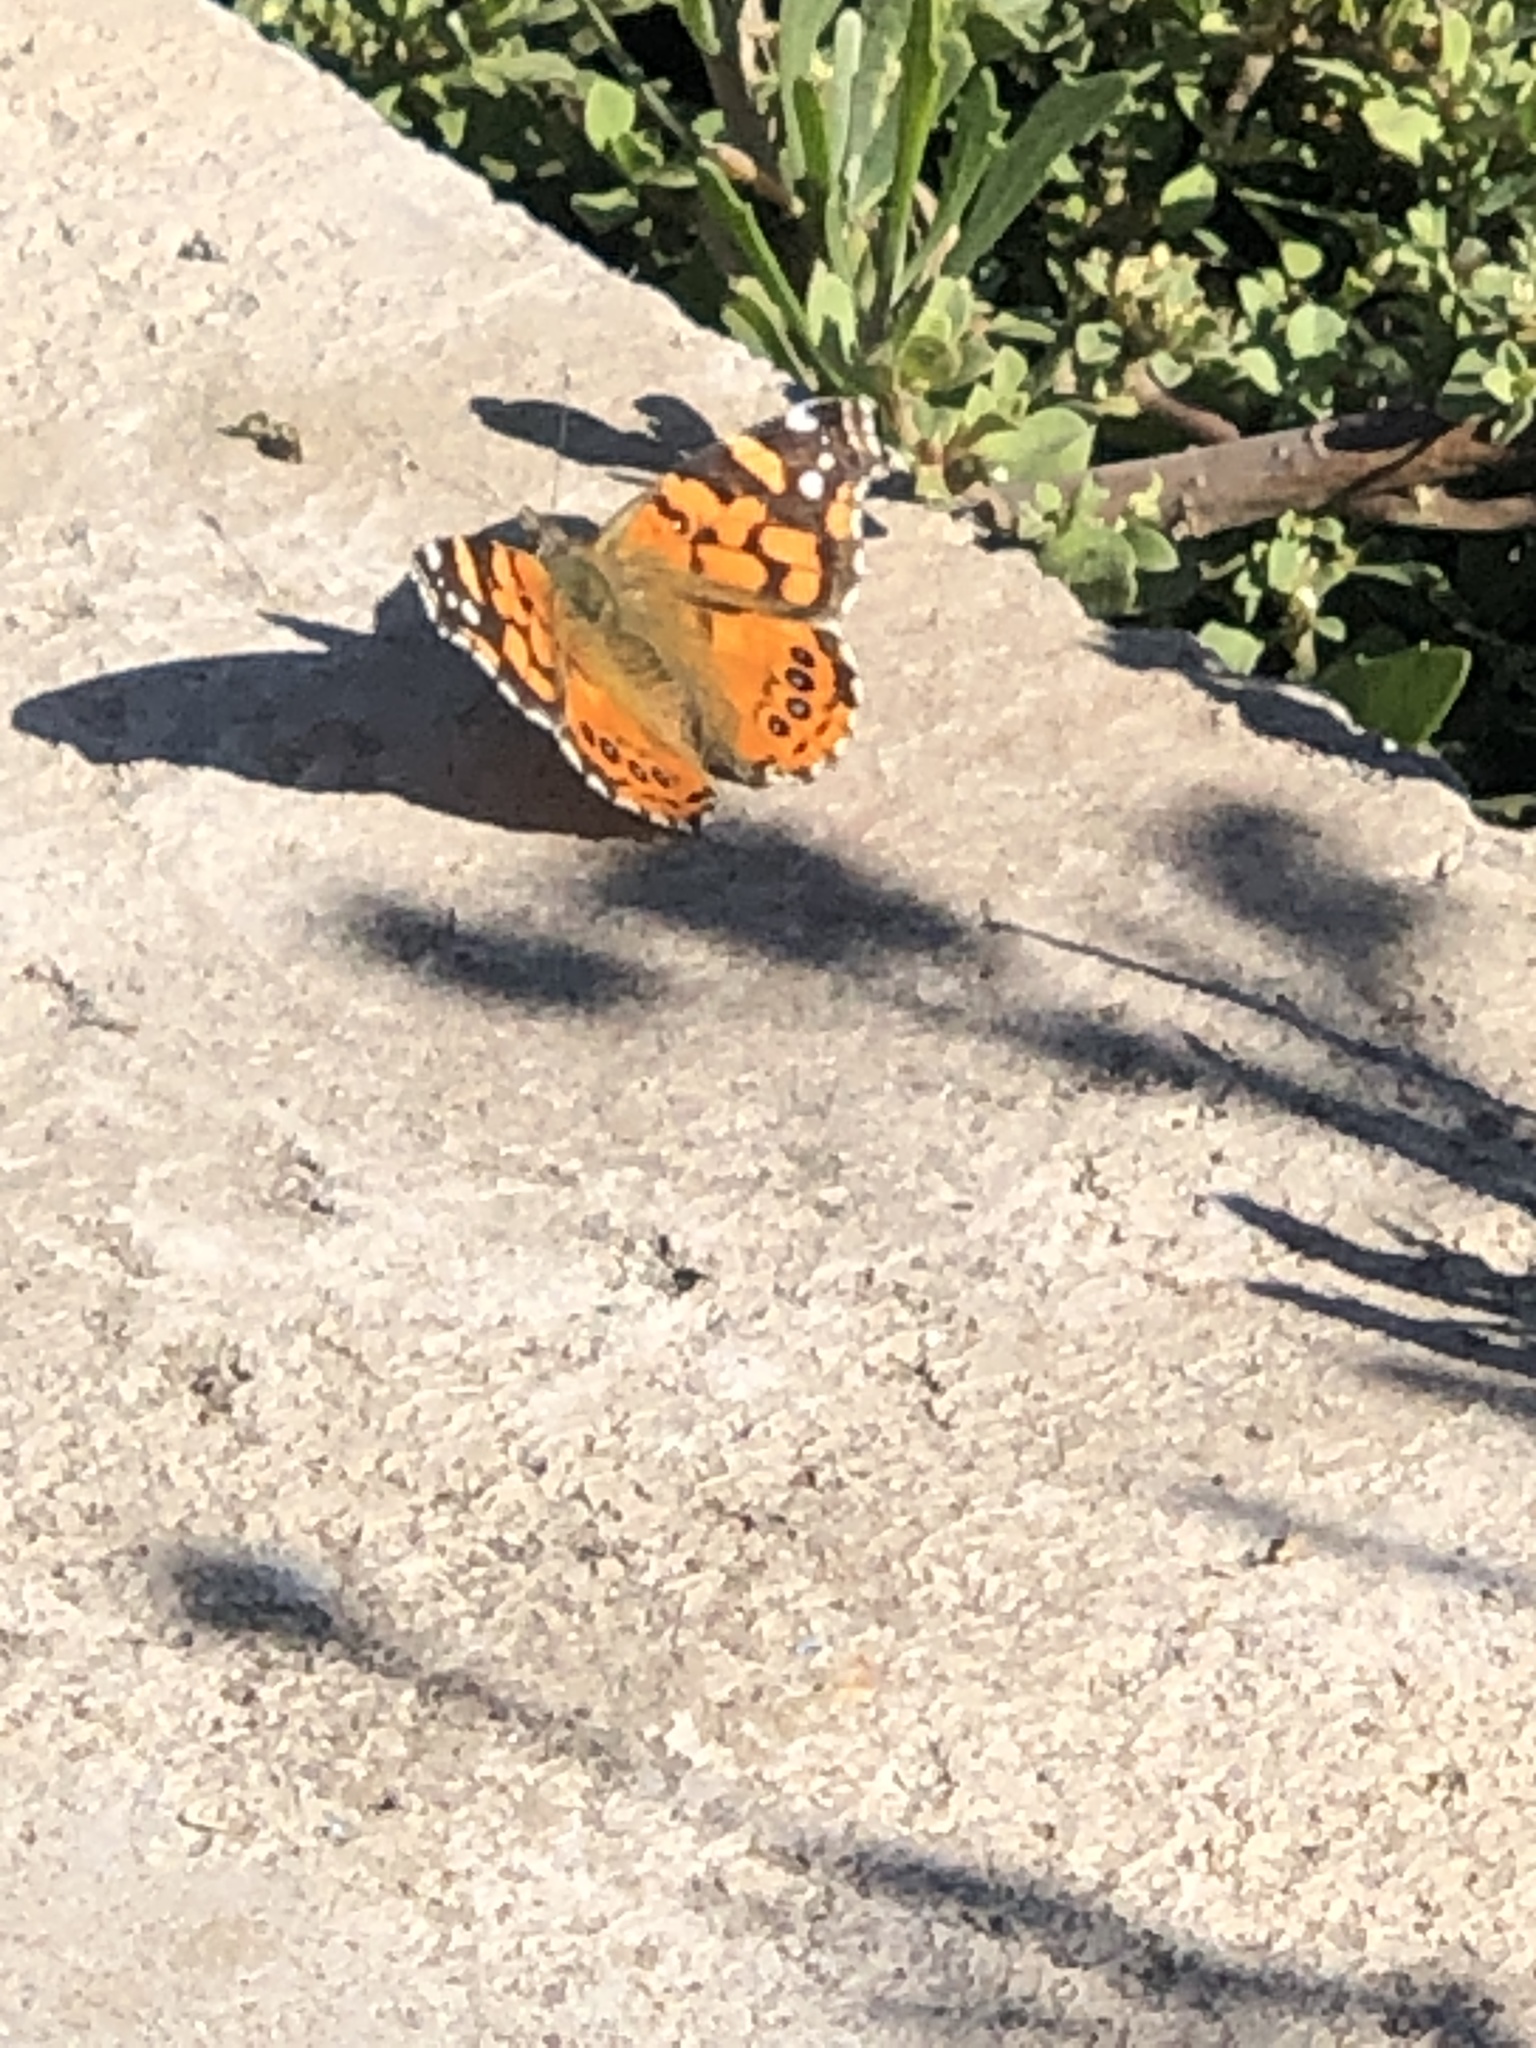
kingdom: Animalia
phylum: Arthropoda
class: Insecta
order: Lepidoptera
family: Nymphalidae
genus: Vanessa
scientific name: Vanessa carye
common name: Subtropical lady
